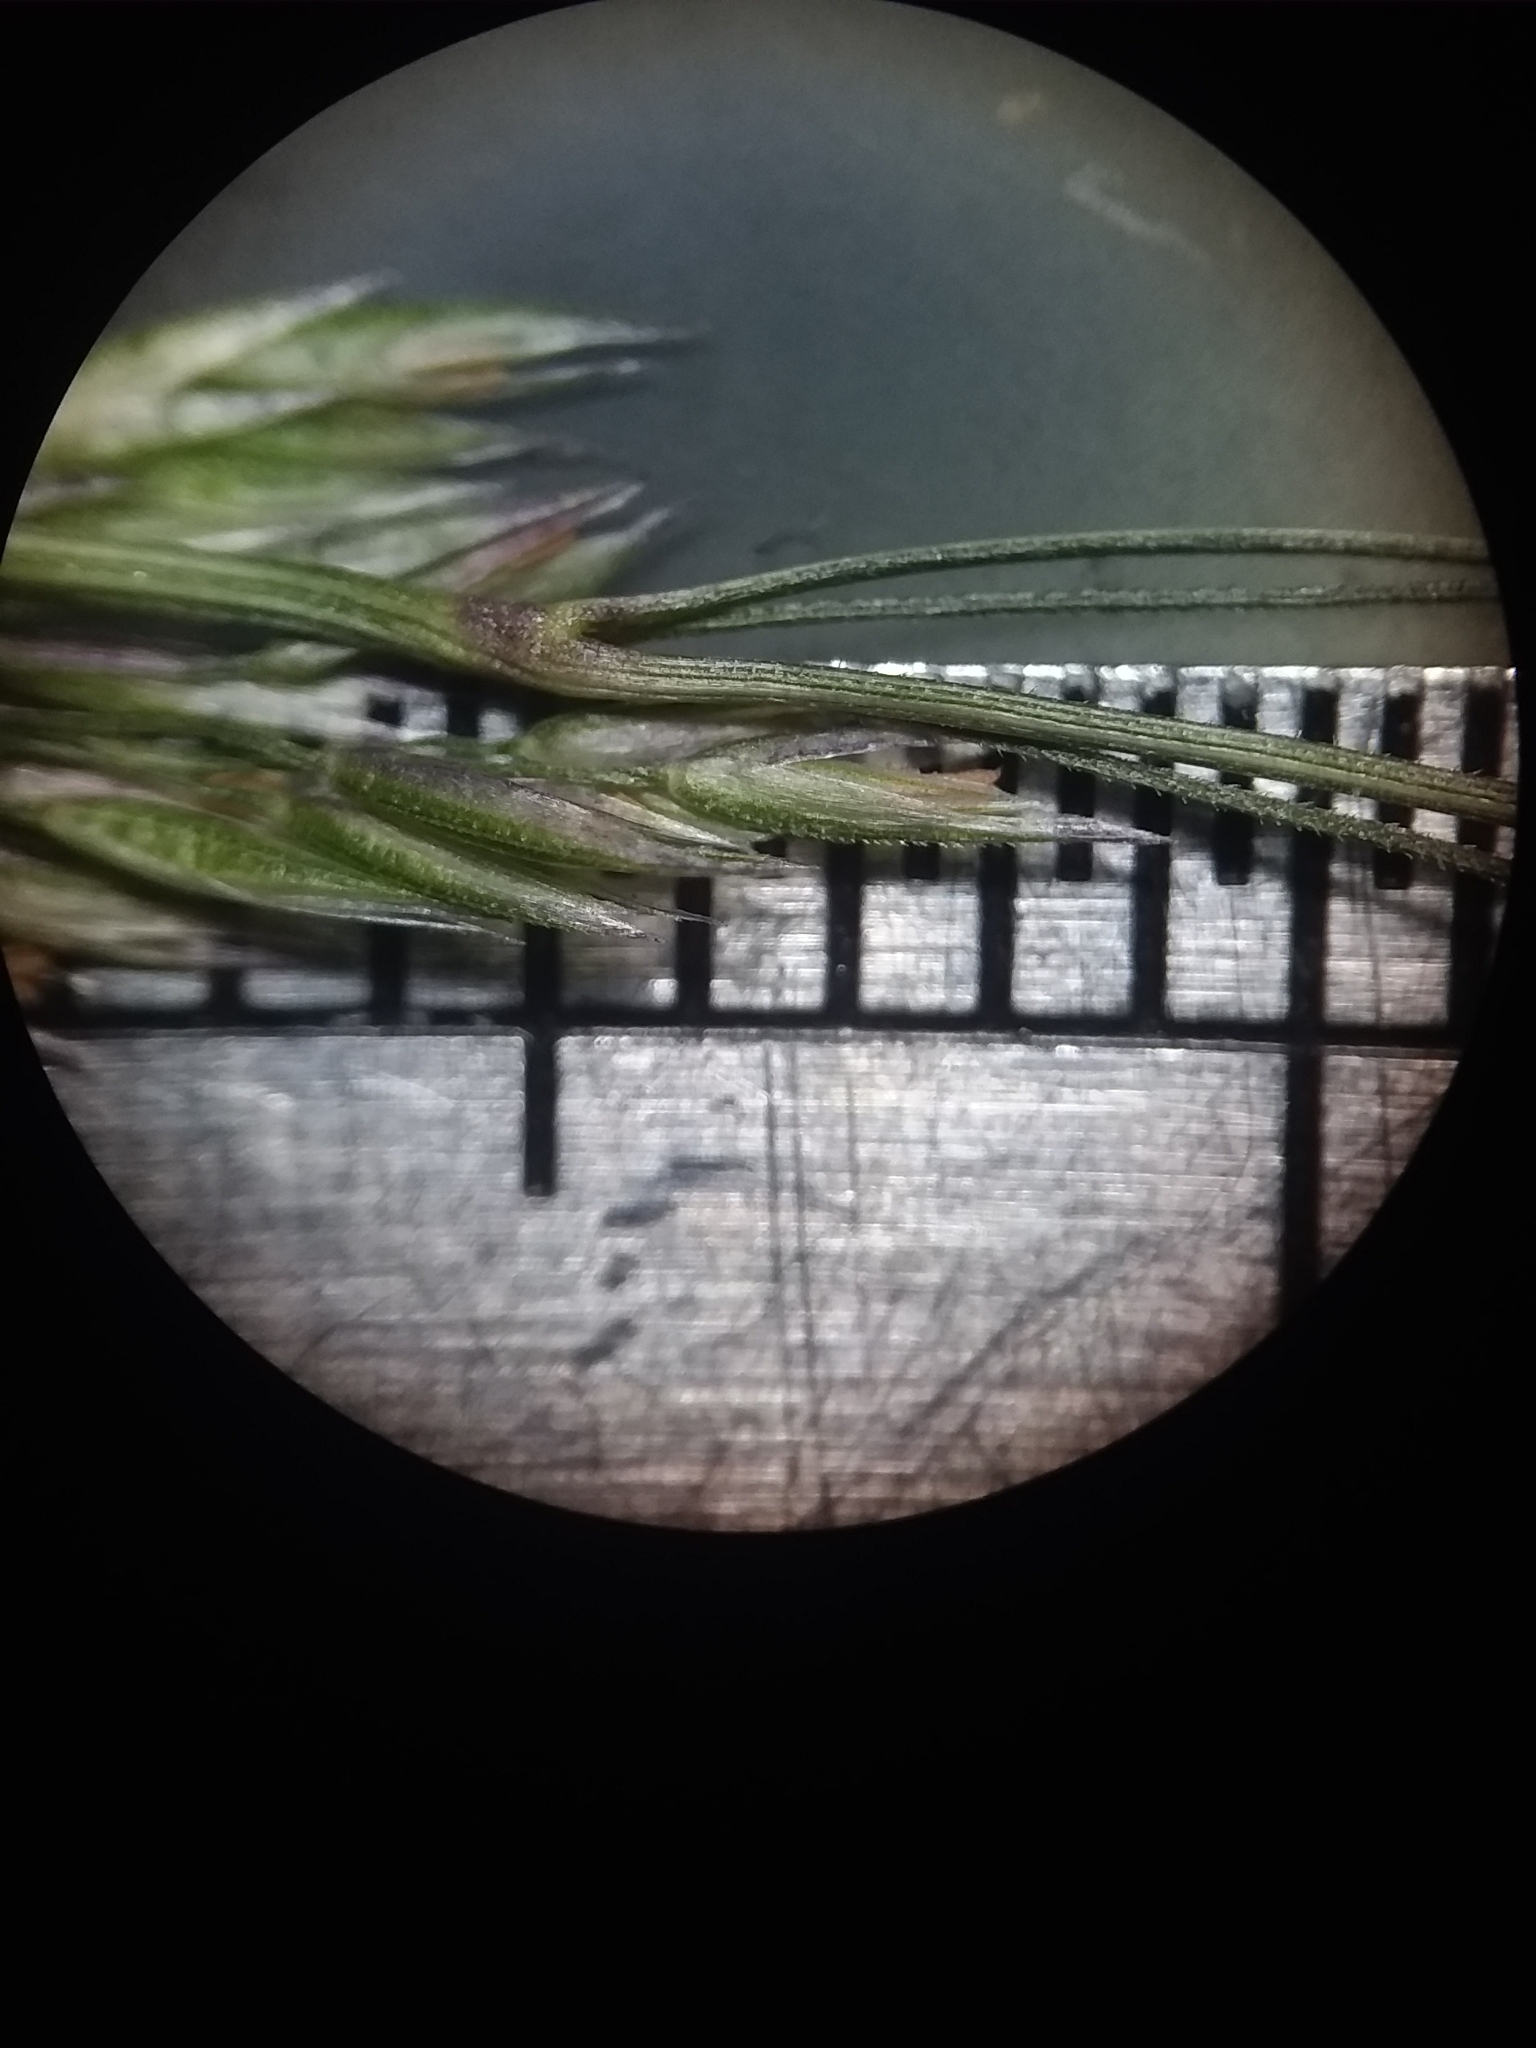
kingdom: Plantae
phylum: Tracheophyta
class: Liliopsida
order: Poales
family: Poaceae
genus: Agrostis
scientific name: Agrostis perennans
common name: Autumn bent
